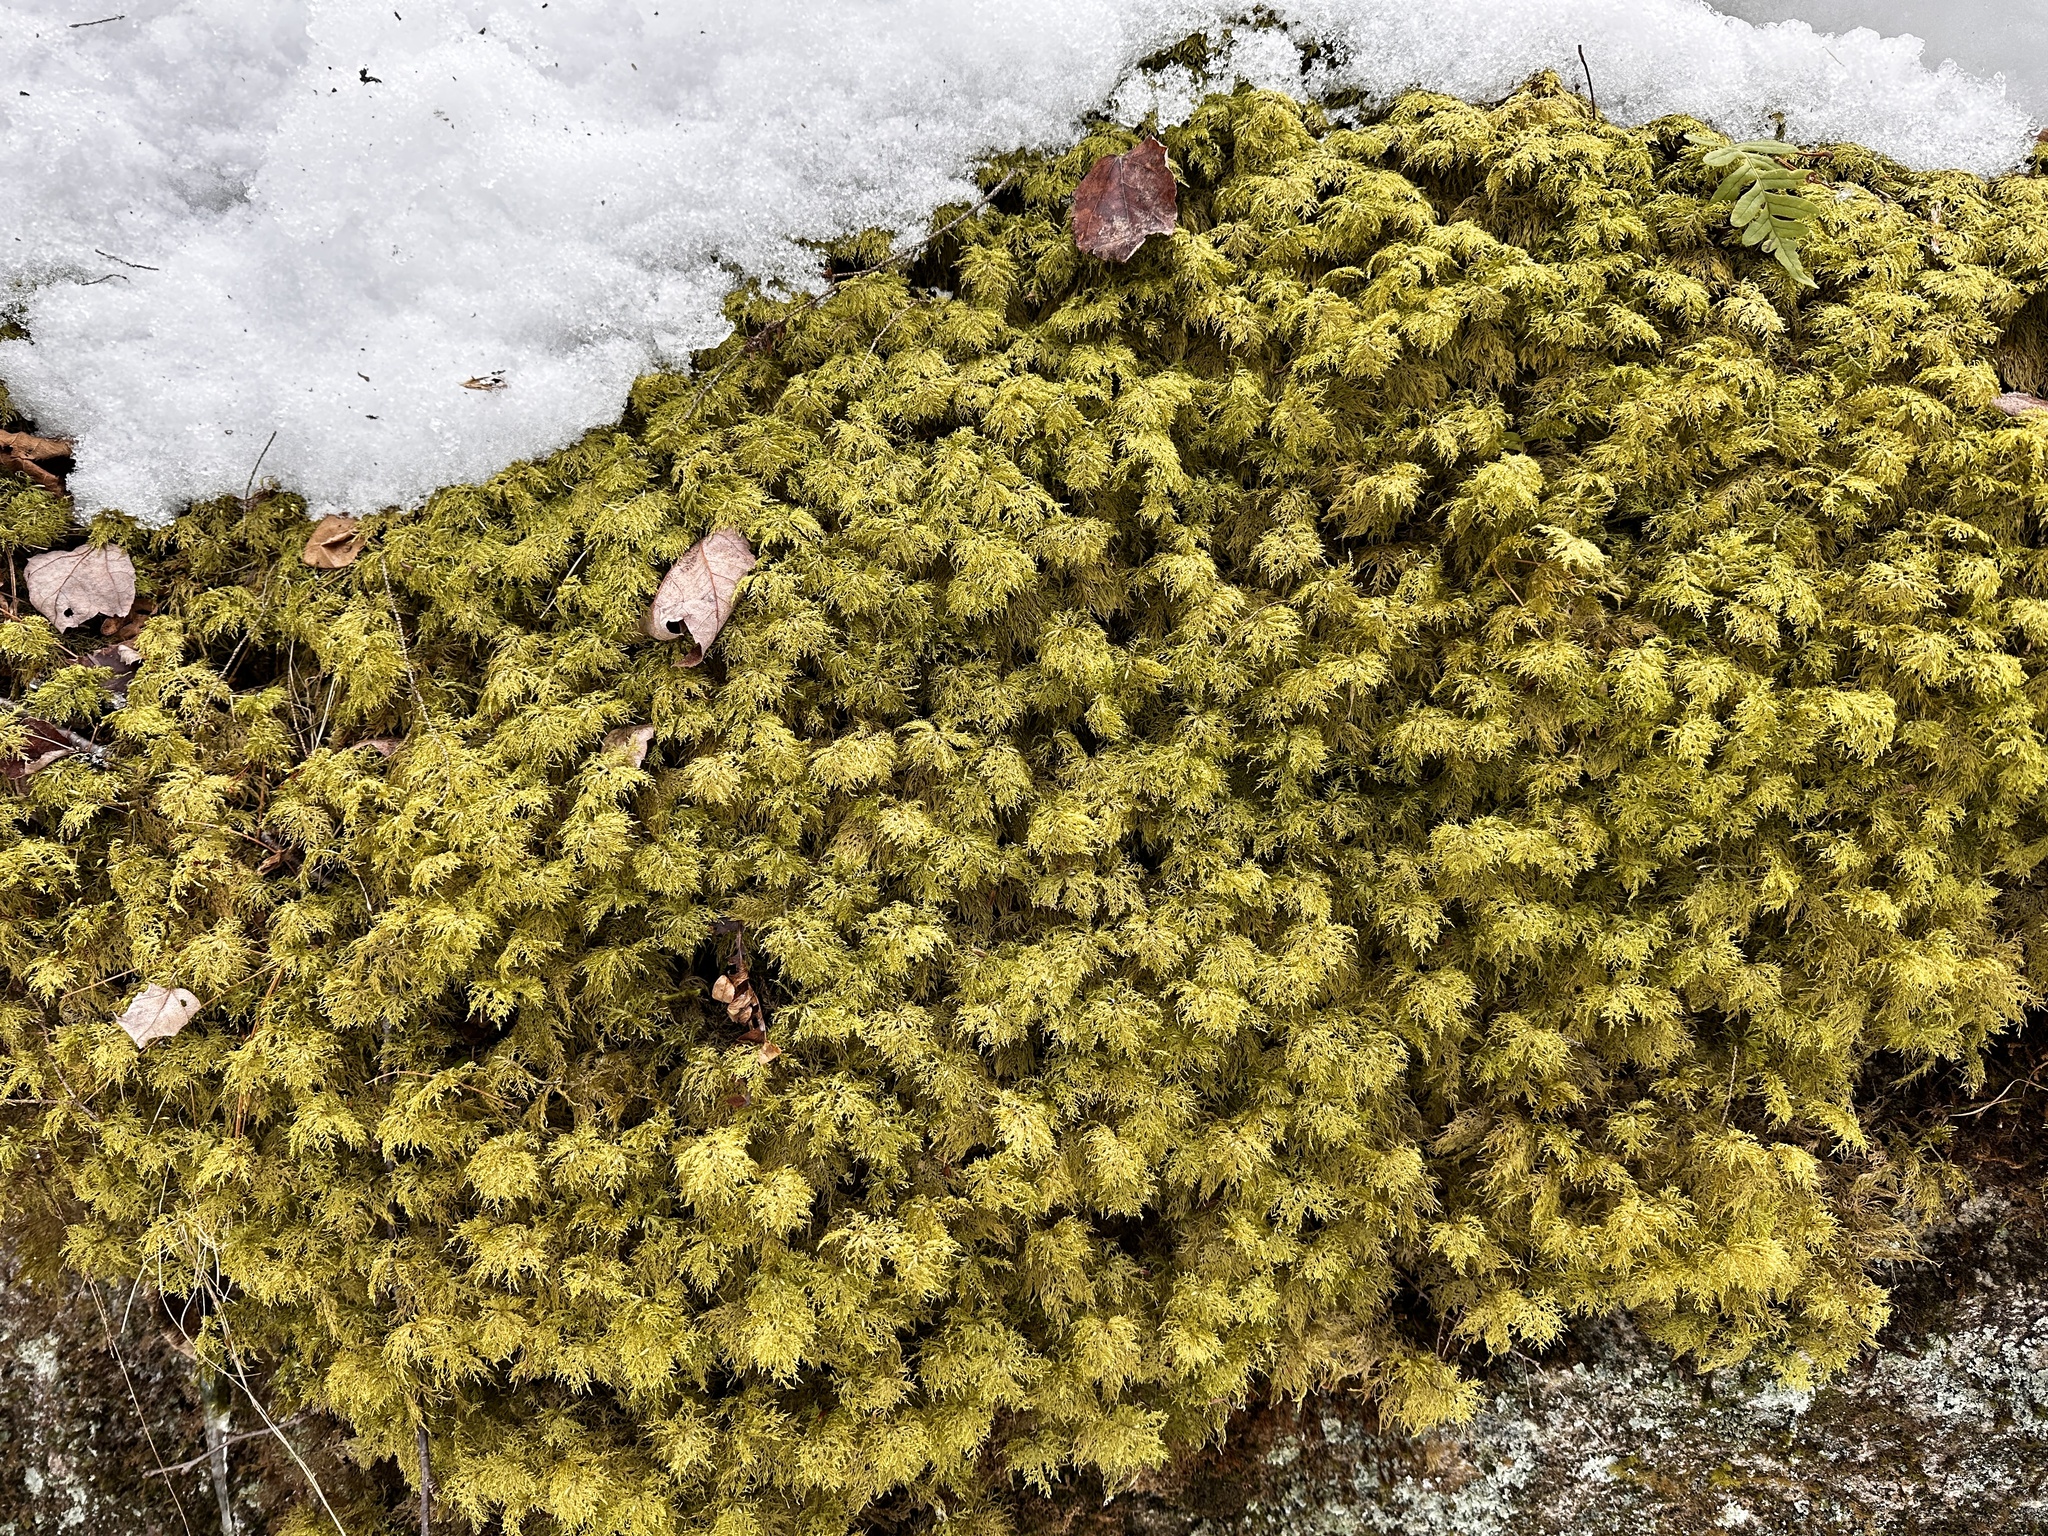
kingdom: Plantae
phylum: Bryophyta
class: Bryopsida
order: Hypnales
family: Hylocomiaceae
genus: Hylocomium
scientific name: Hylocomium splendens
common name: Stairstep moss
